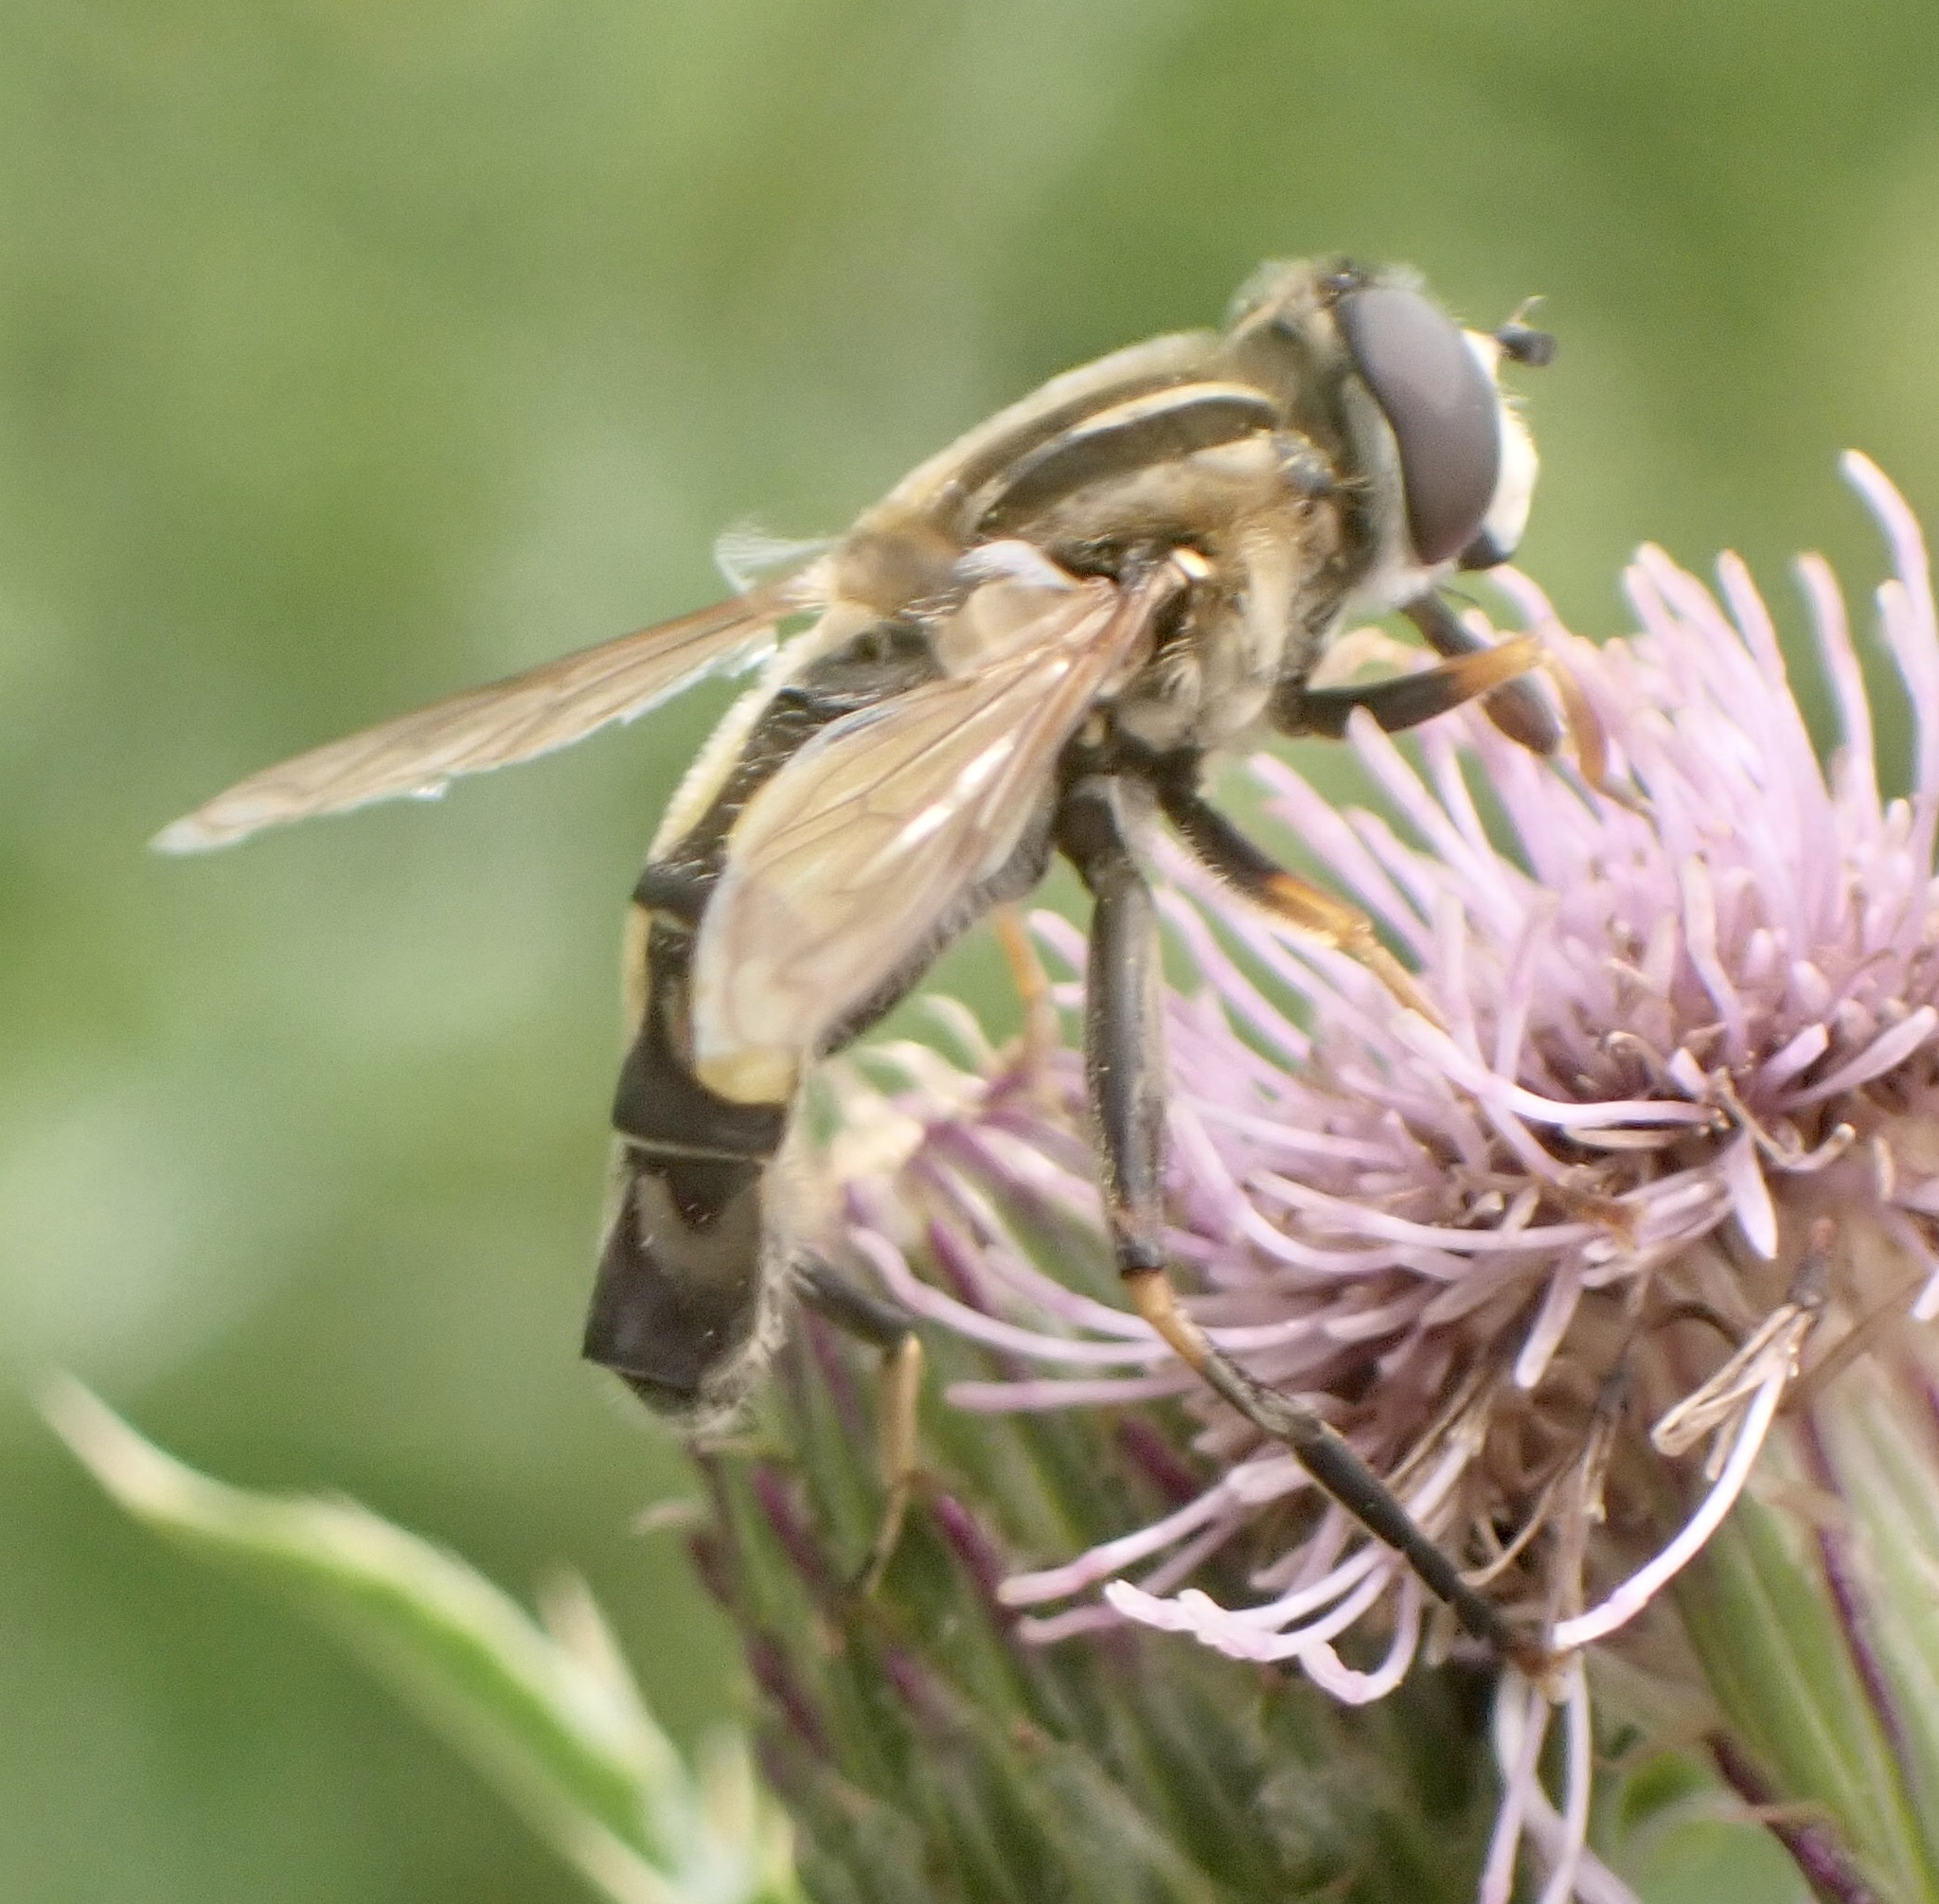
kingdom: Animalia
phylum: Arthropoda
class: Insecta
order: Diptera
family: Syrphidae
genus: Helophilus
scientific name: Helophilus trivittatus
